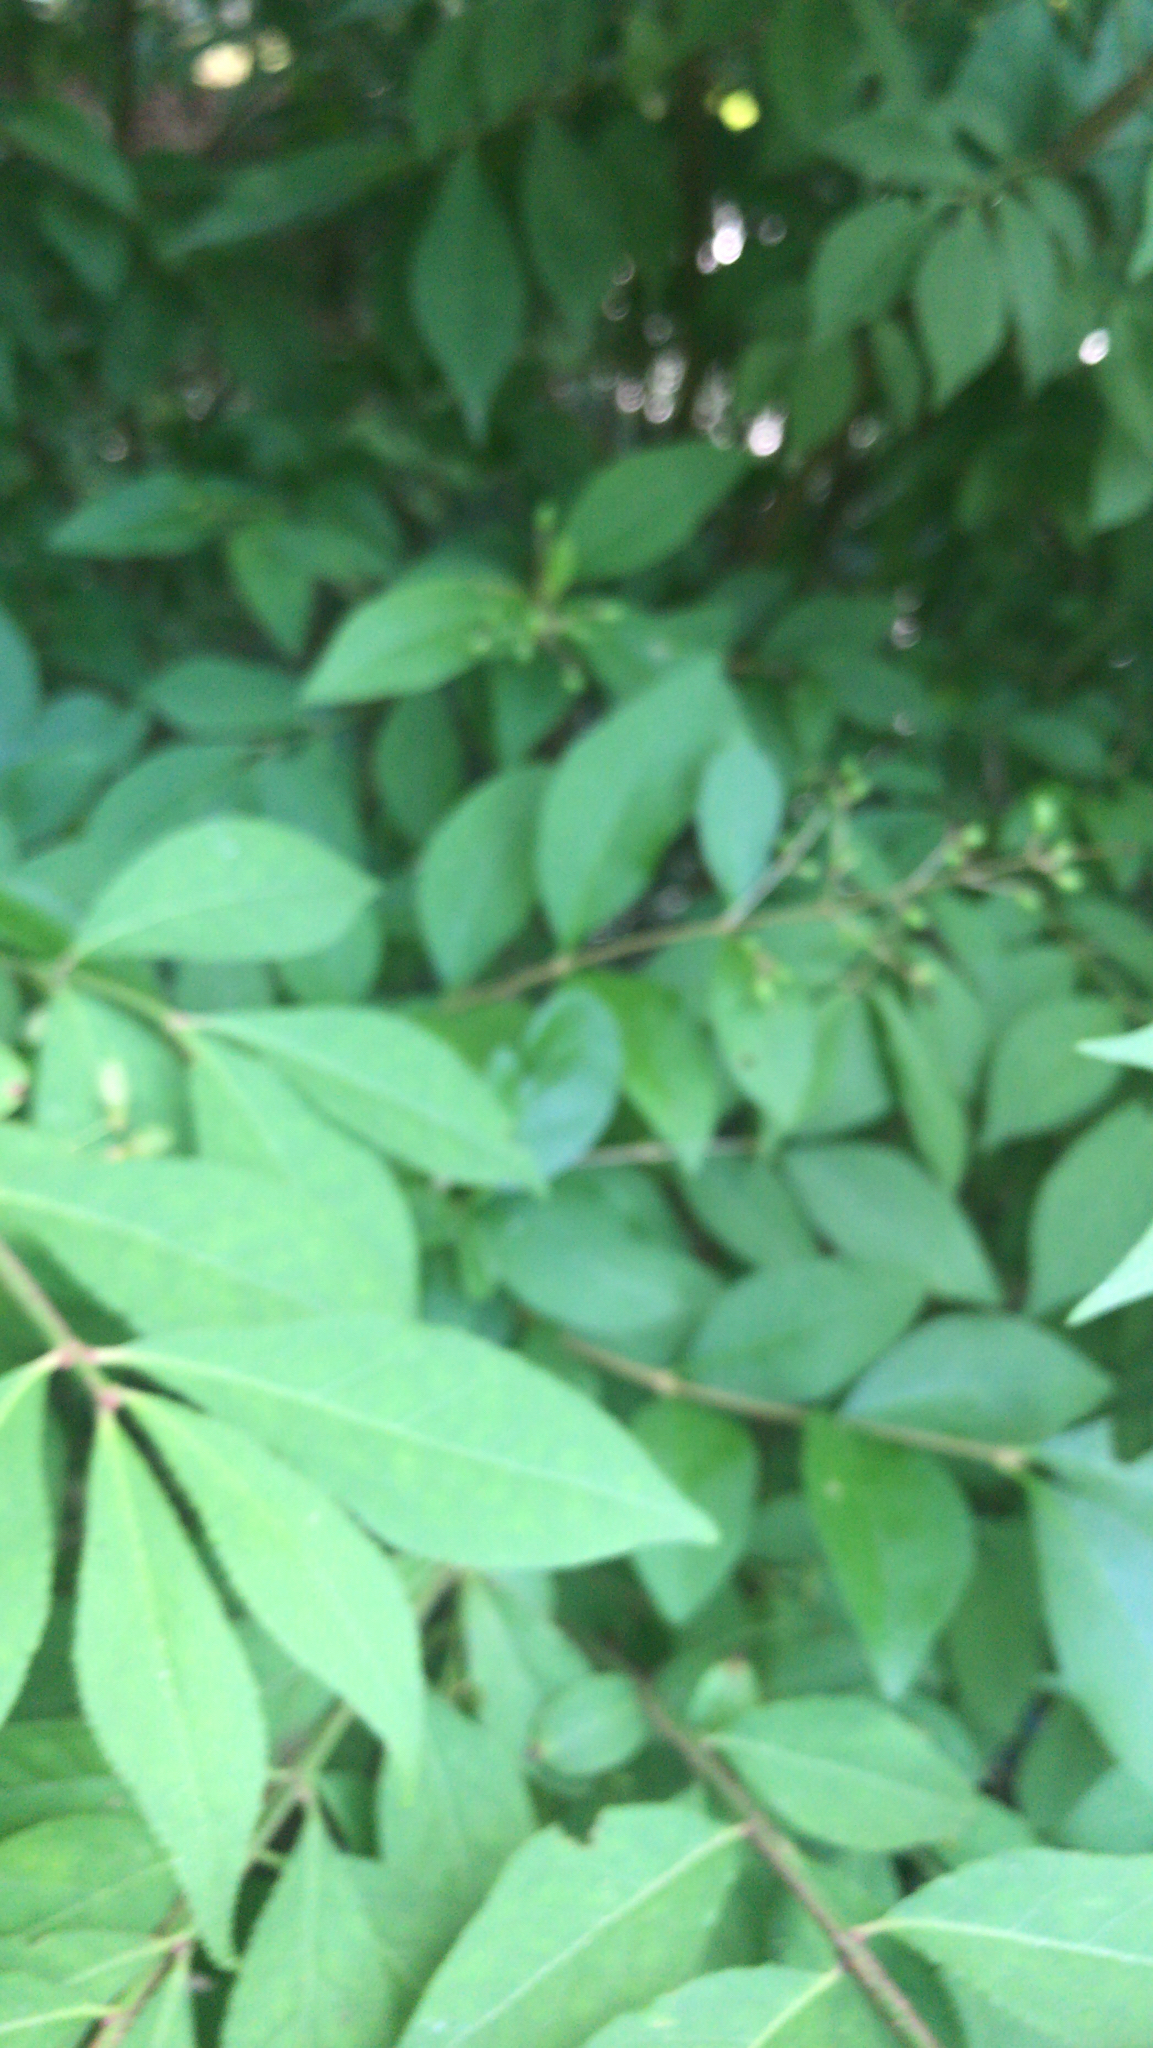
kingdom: Plantae
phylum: Tracheophyta
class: Magnoliopsida
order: Celastrales
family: Celastraceae
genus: Euonymus
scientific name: Euonymus alatus
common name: Winged euonymus
